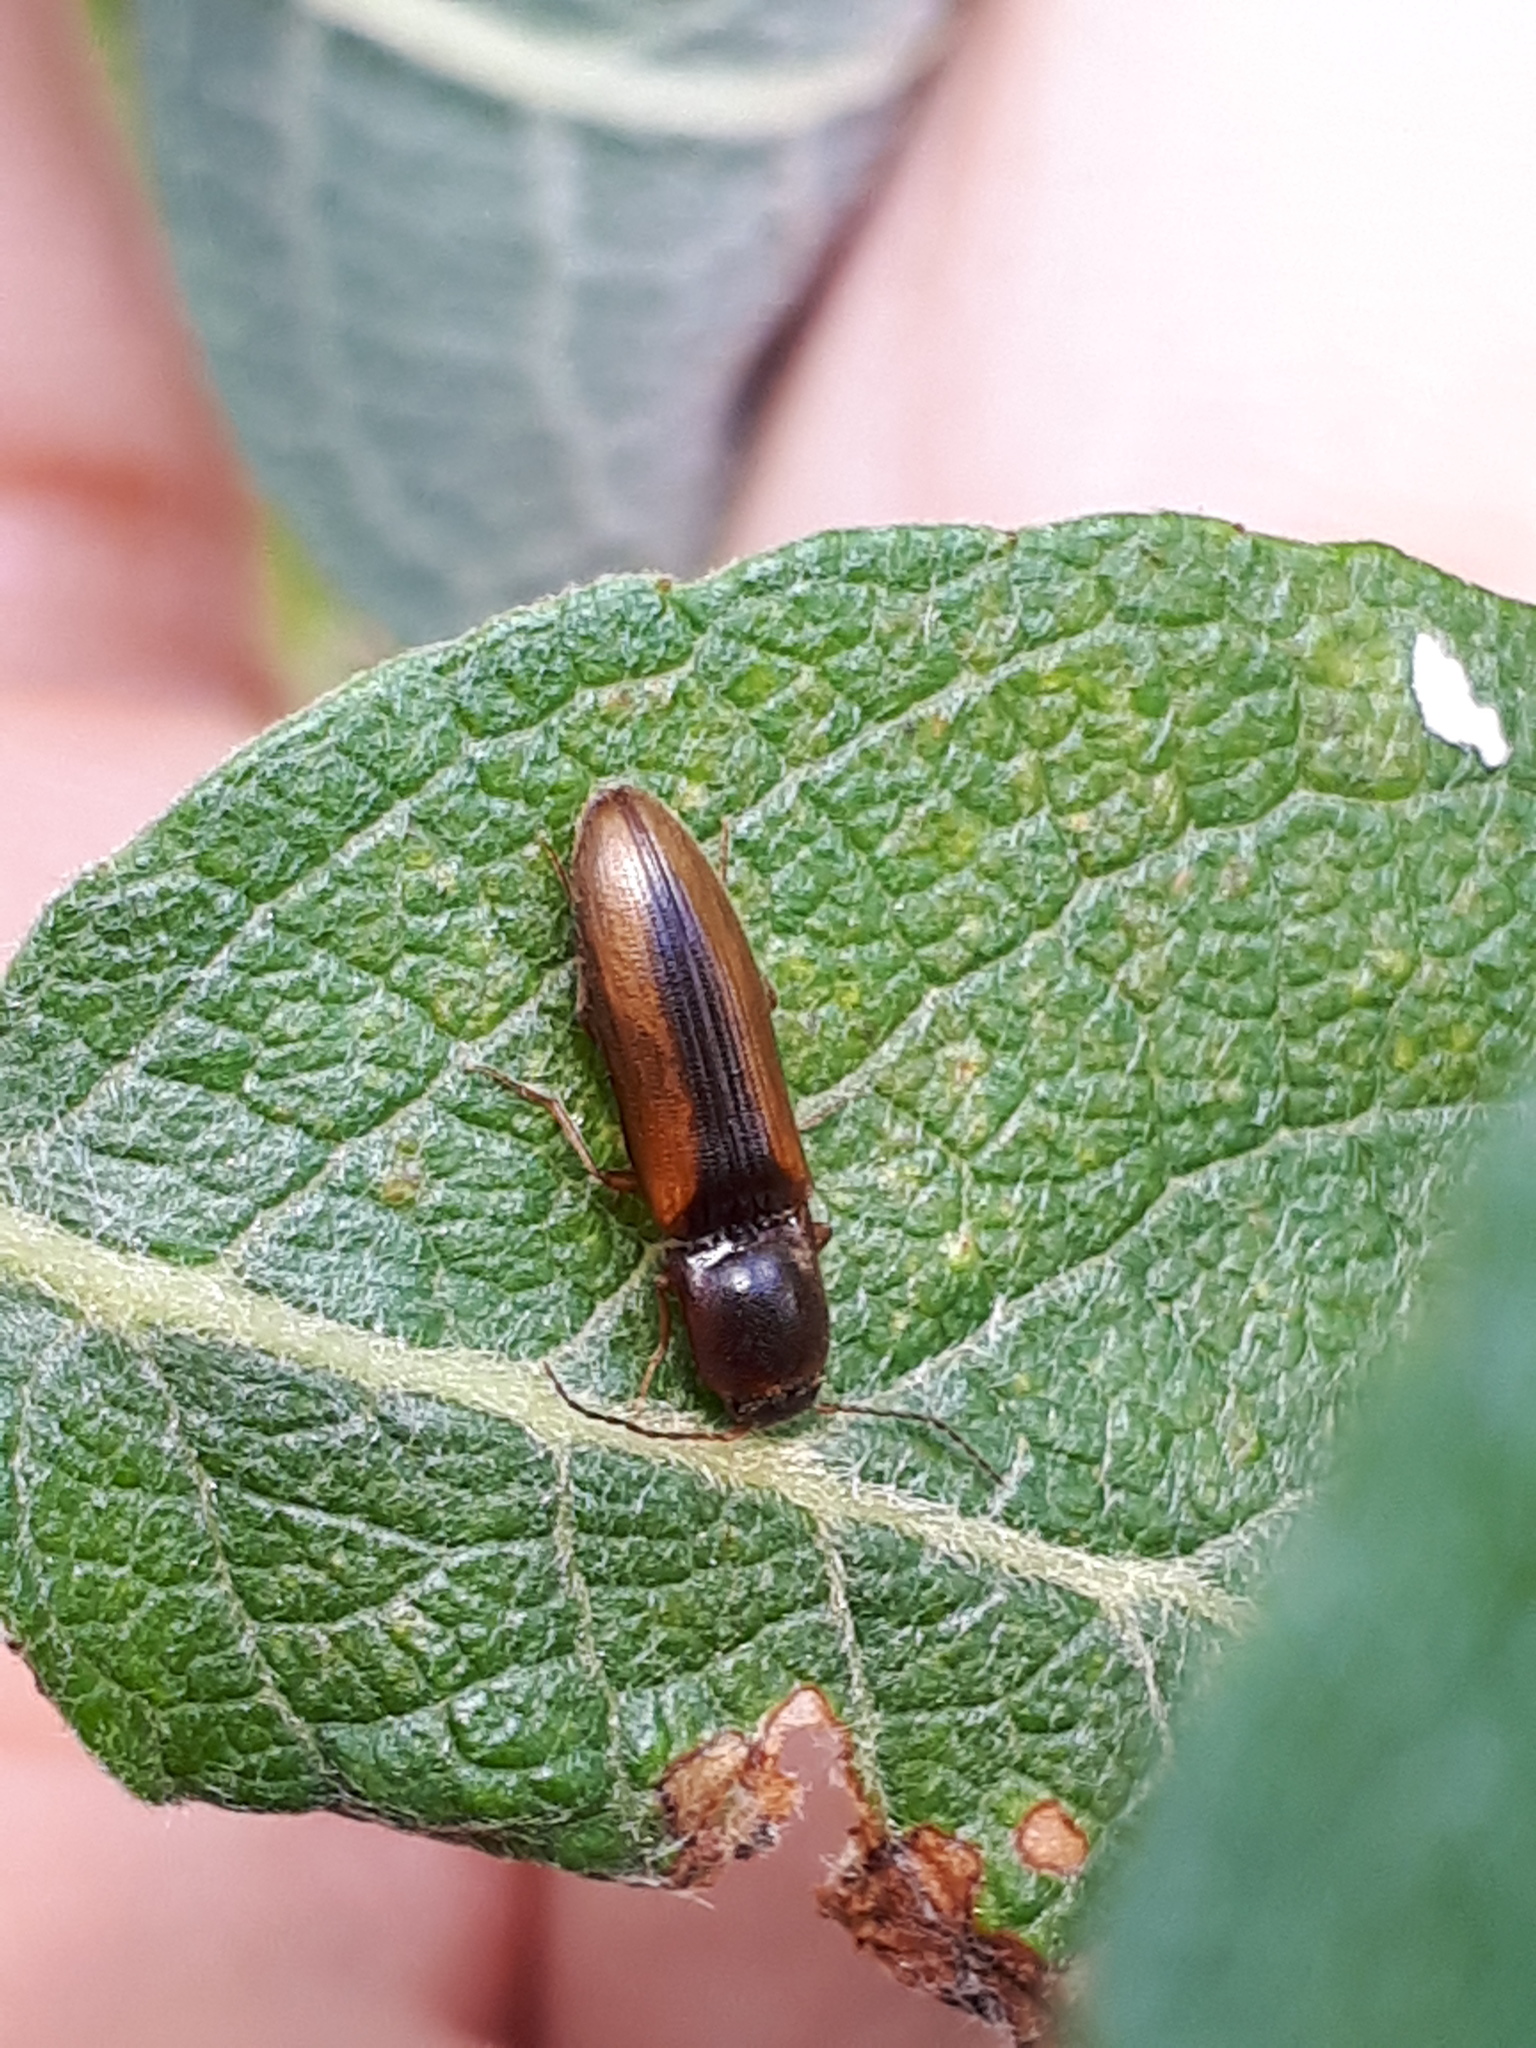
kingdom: Animalia
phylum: Arthropoda
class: Insecta
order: Coleoptera
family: Elateridae
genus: Dalopius
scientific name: Dalopius marginatus
